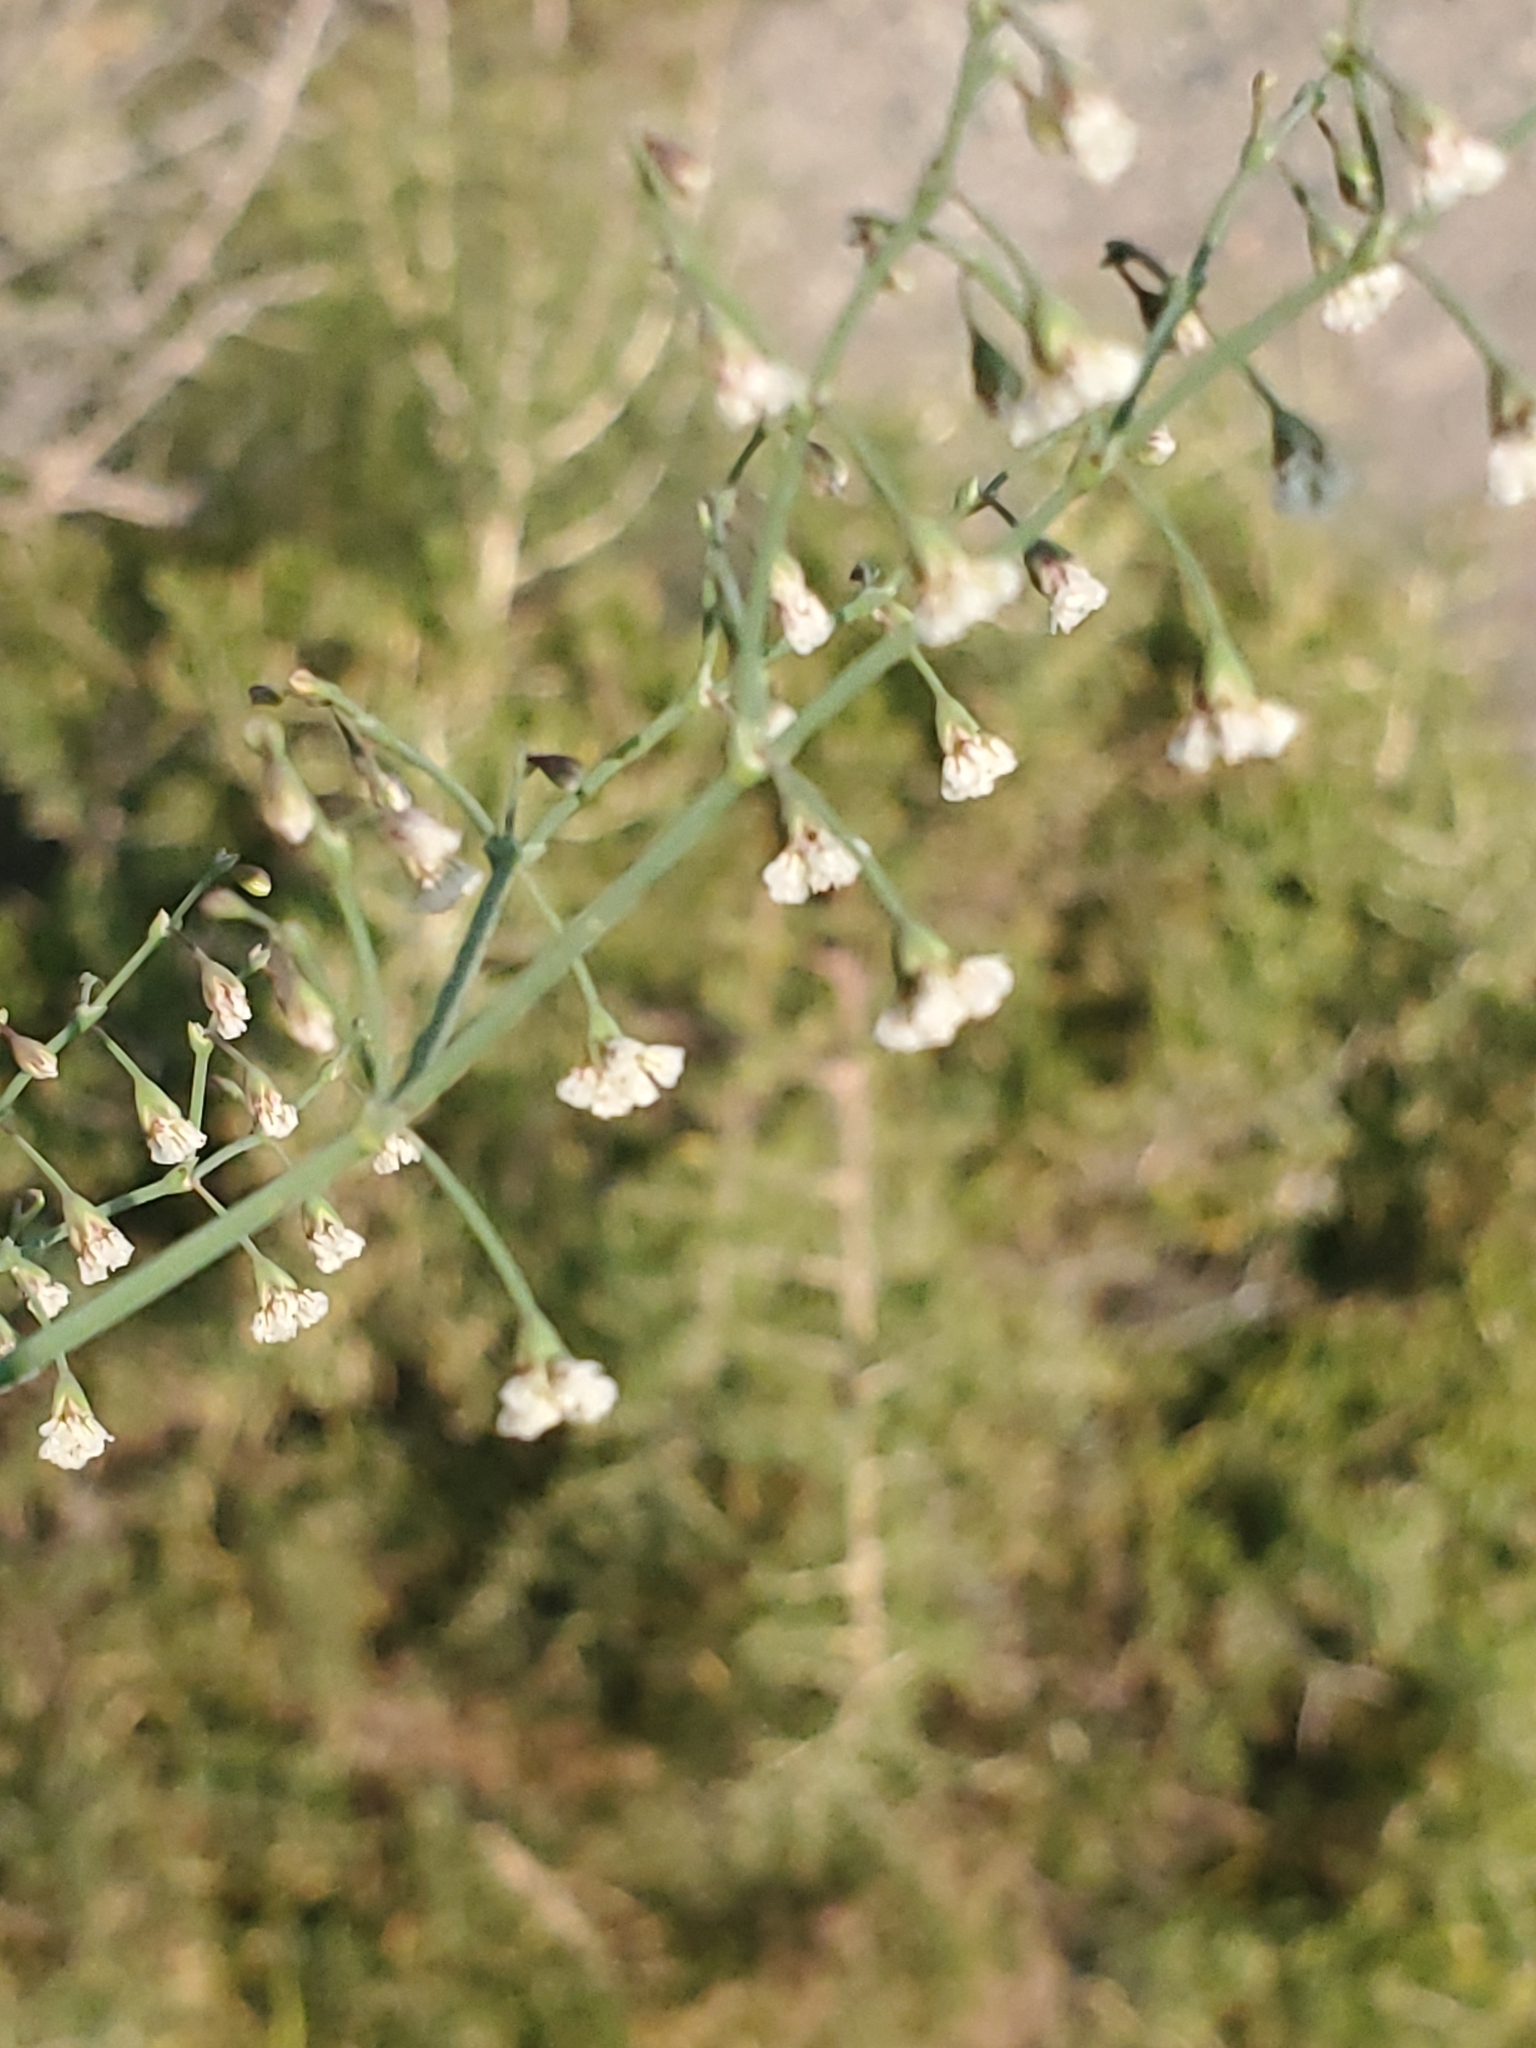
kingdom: Plantae
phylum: Tracheophyta
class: Magnoliopsida
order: Caryophyllales
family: Polygonaceae
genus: Eriogonum
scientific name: Eriogonum cernuum
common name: Nodding wild buckwheat
